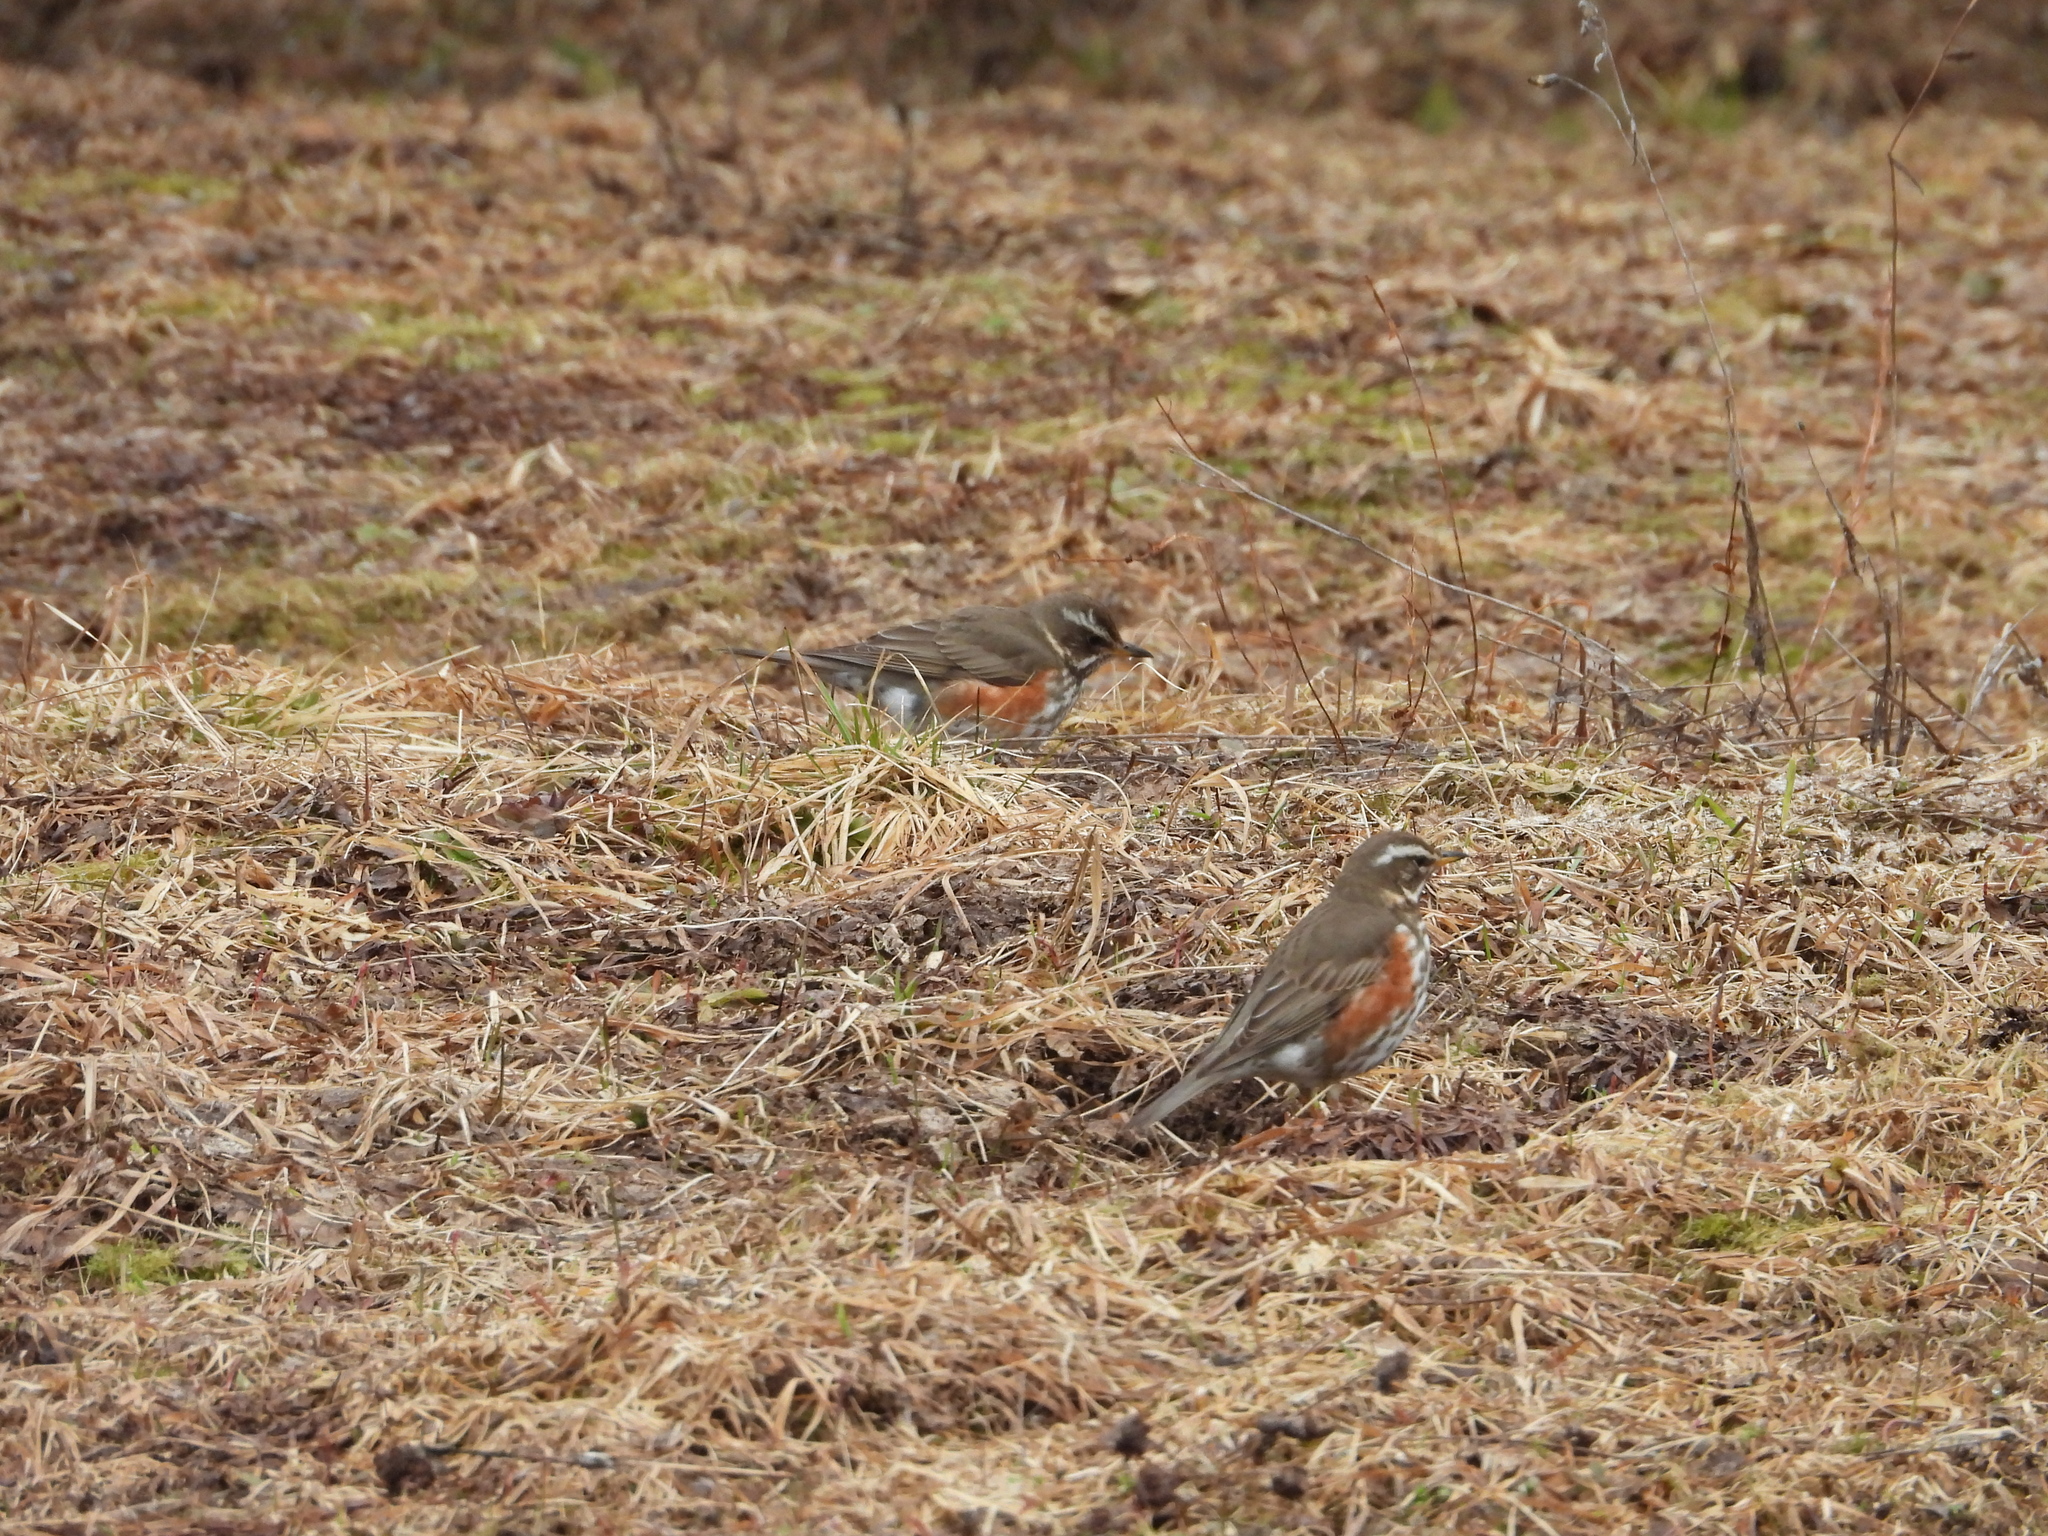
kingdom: Animalia
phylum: Chordata
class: Aves
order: Passeriformes
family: Turdidae
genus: Turdus
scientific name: Turdus iliacus
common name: Redwing
